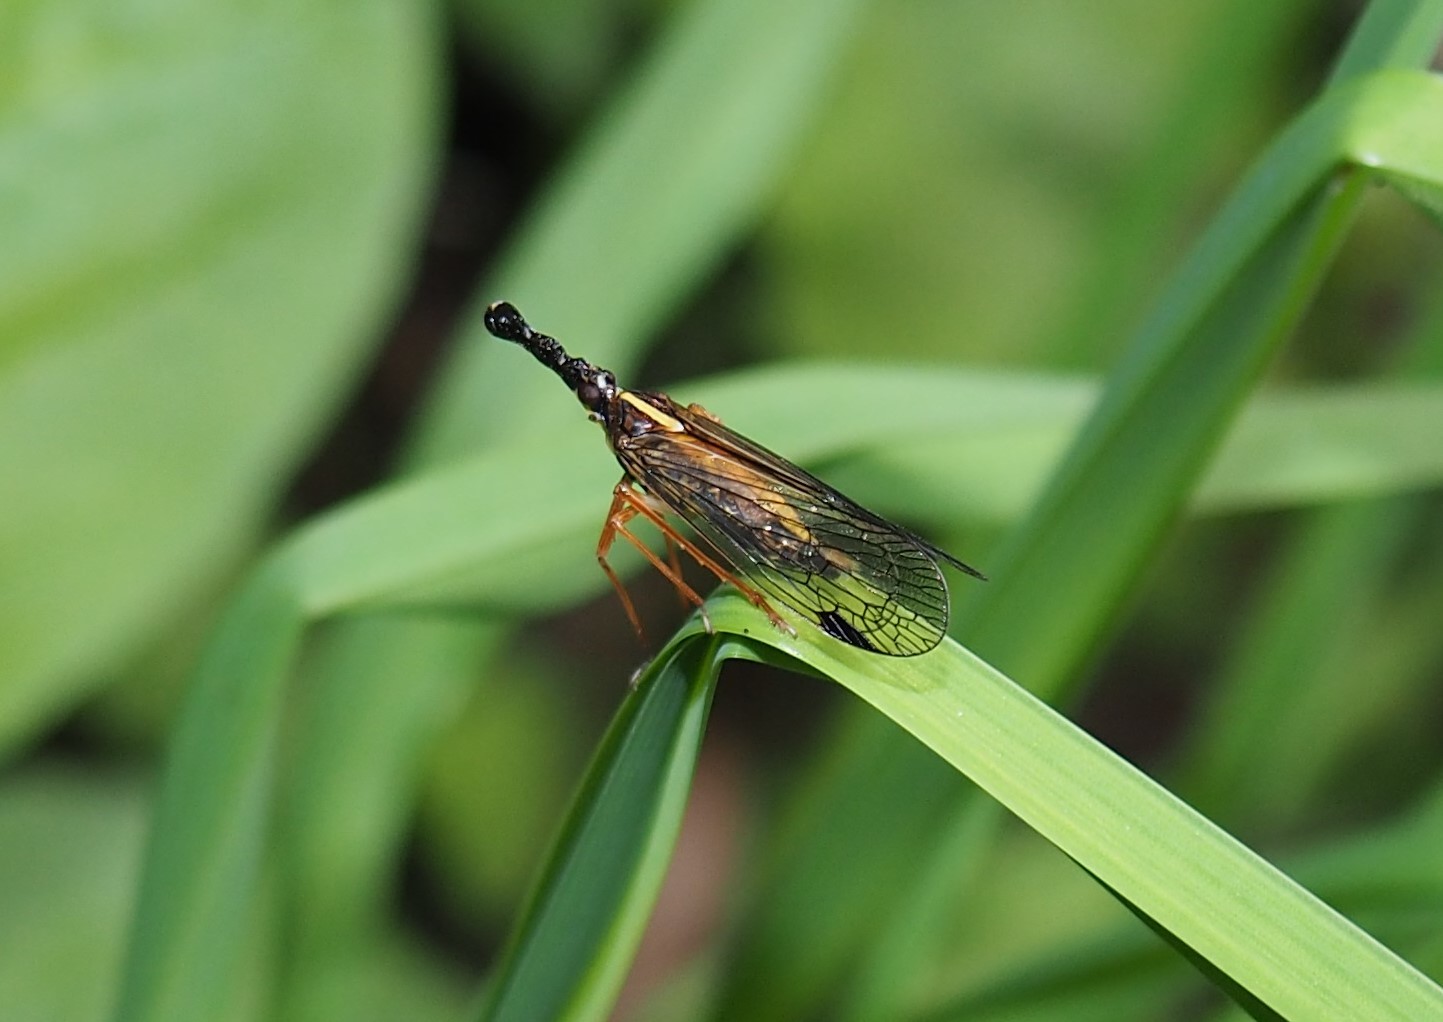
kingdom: Animalia
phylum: Arthropoda
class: Insecta
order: Hemiptera
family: Dictyopharidae
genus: Saigona
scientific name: Saigona fulgoroides
